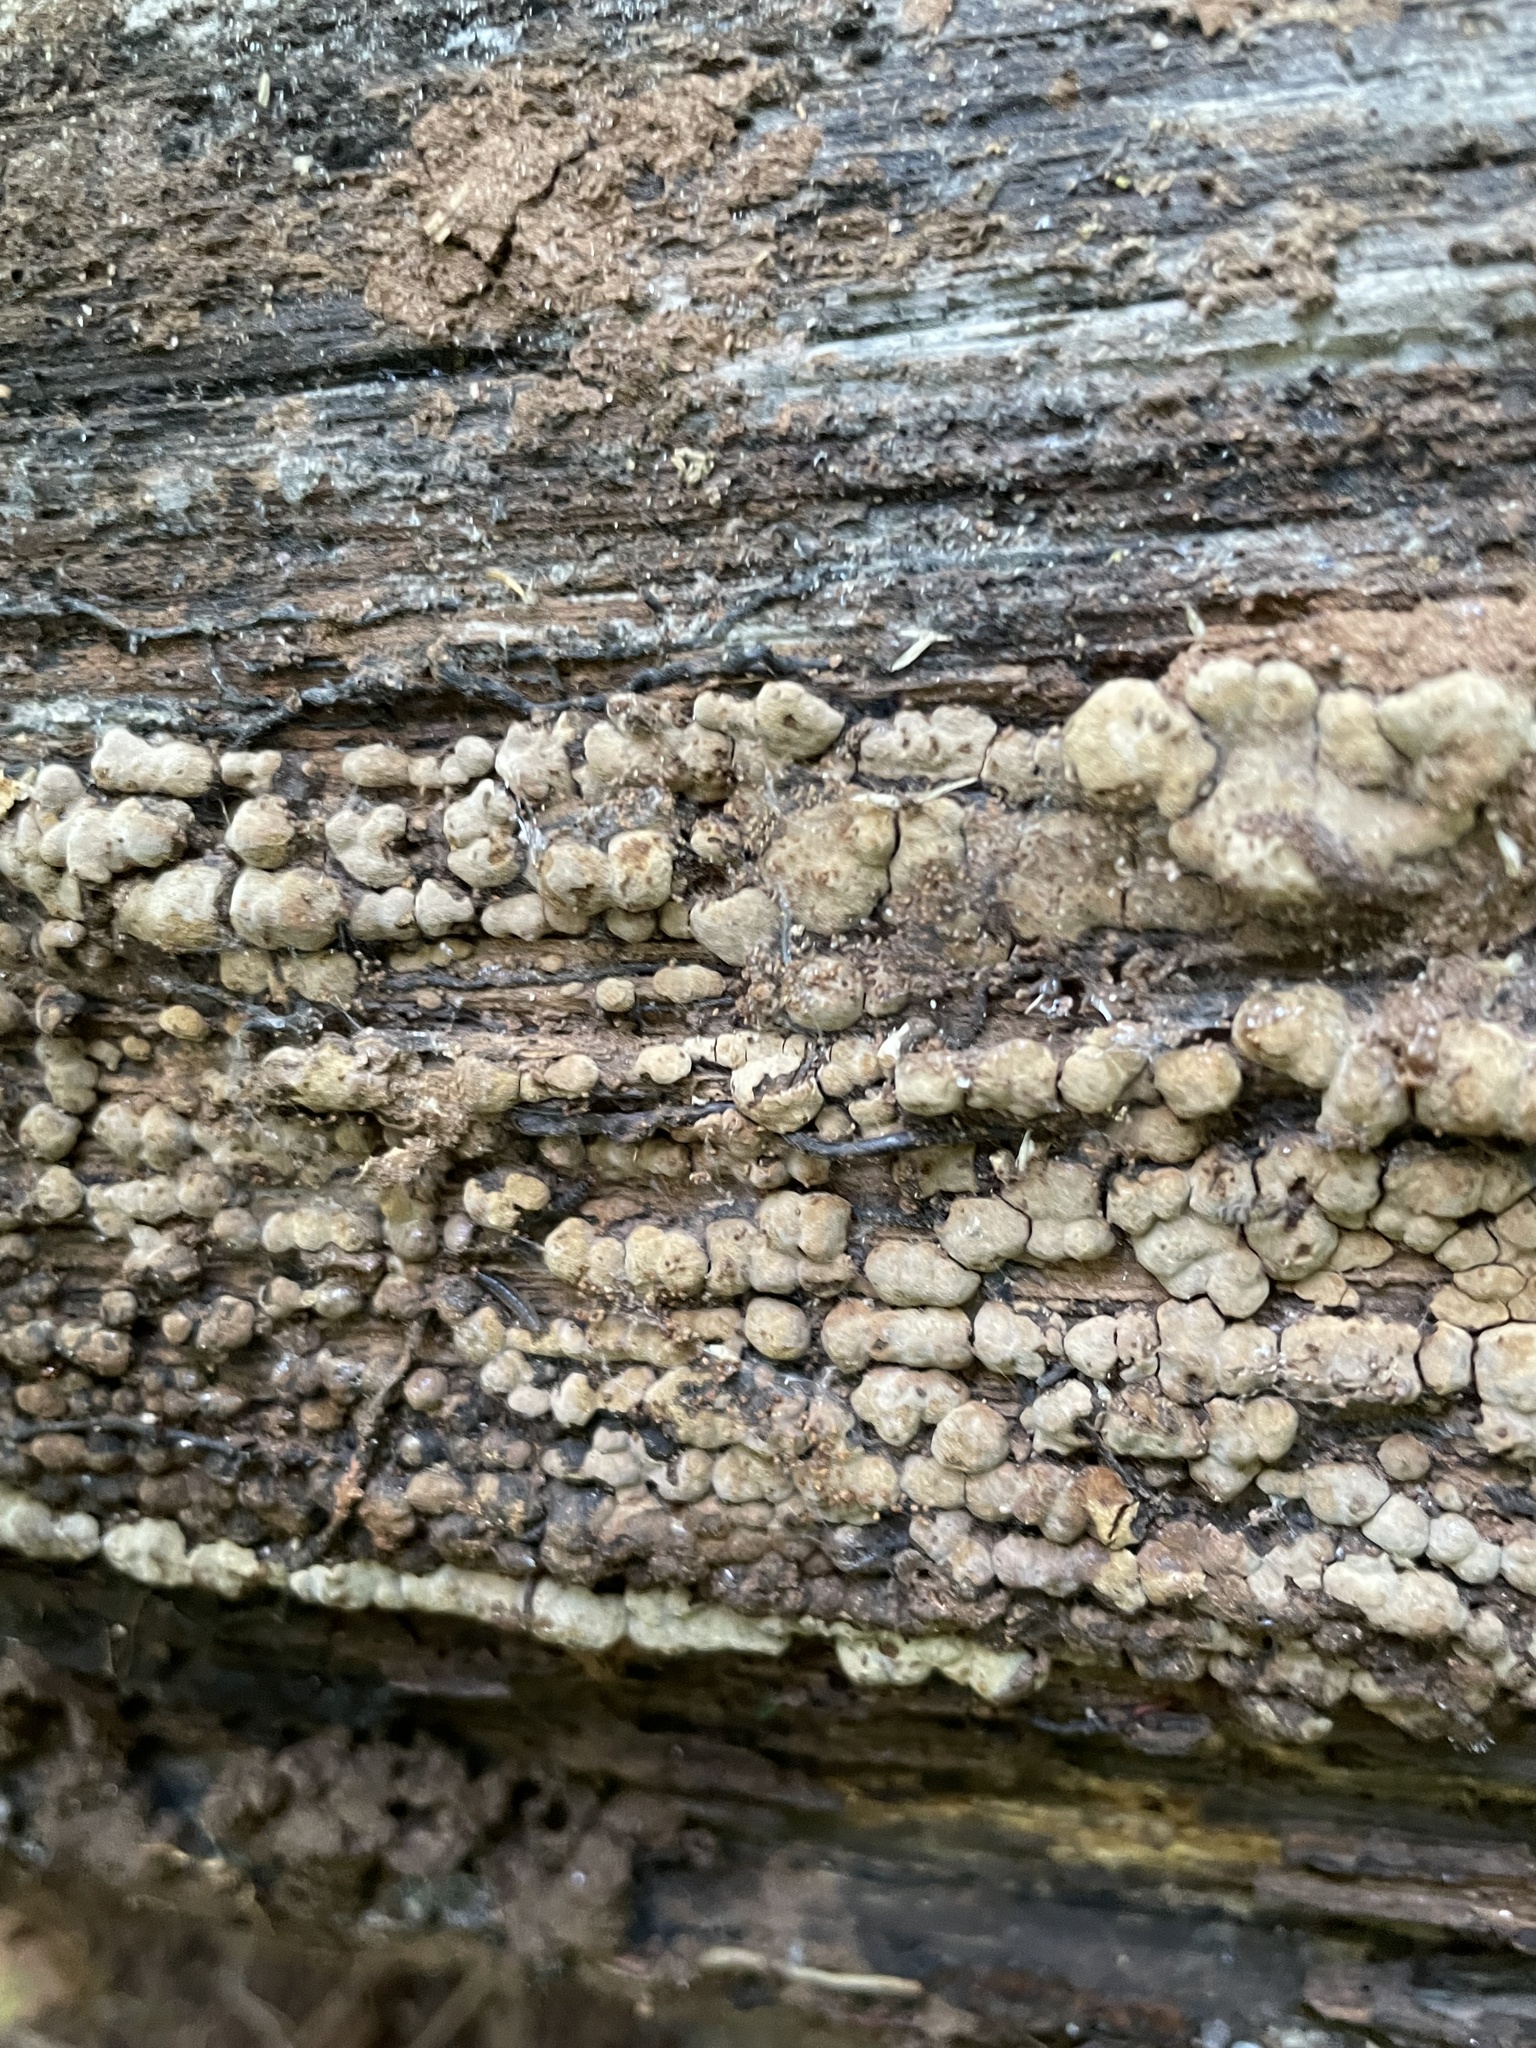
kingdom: Fungi
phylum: Basidiomycota
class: Agaricomycetes
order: Russulales
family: Stereaceae
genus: Xylobolus
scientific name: Xylobolus frustulatus
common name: Ceramic parchment
